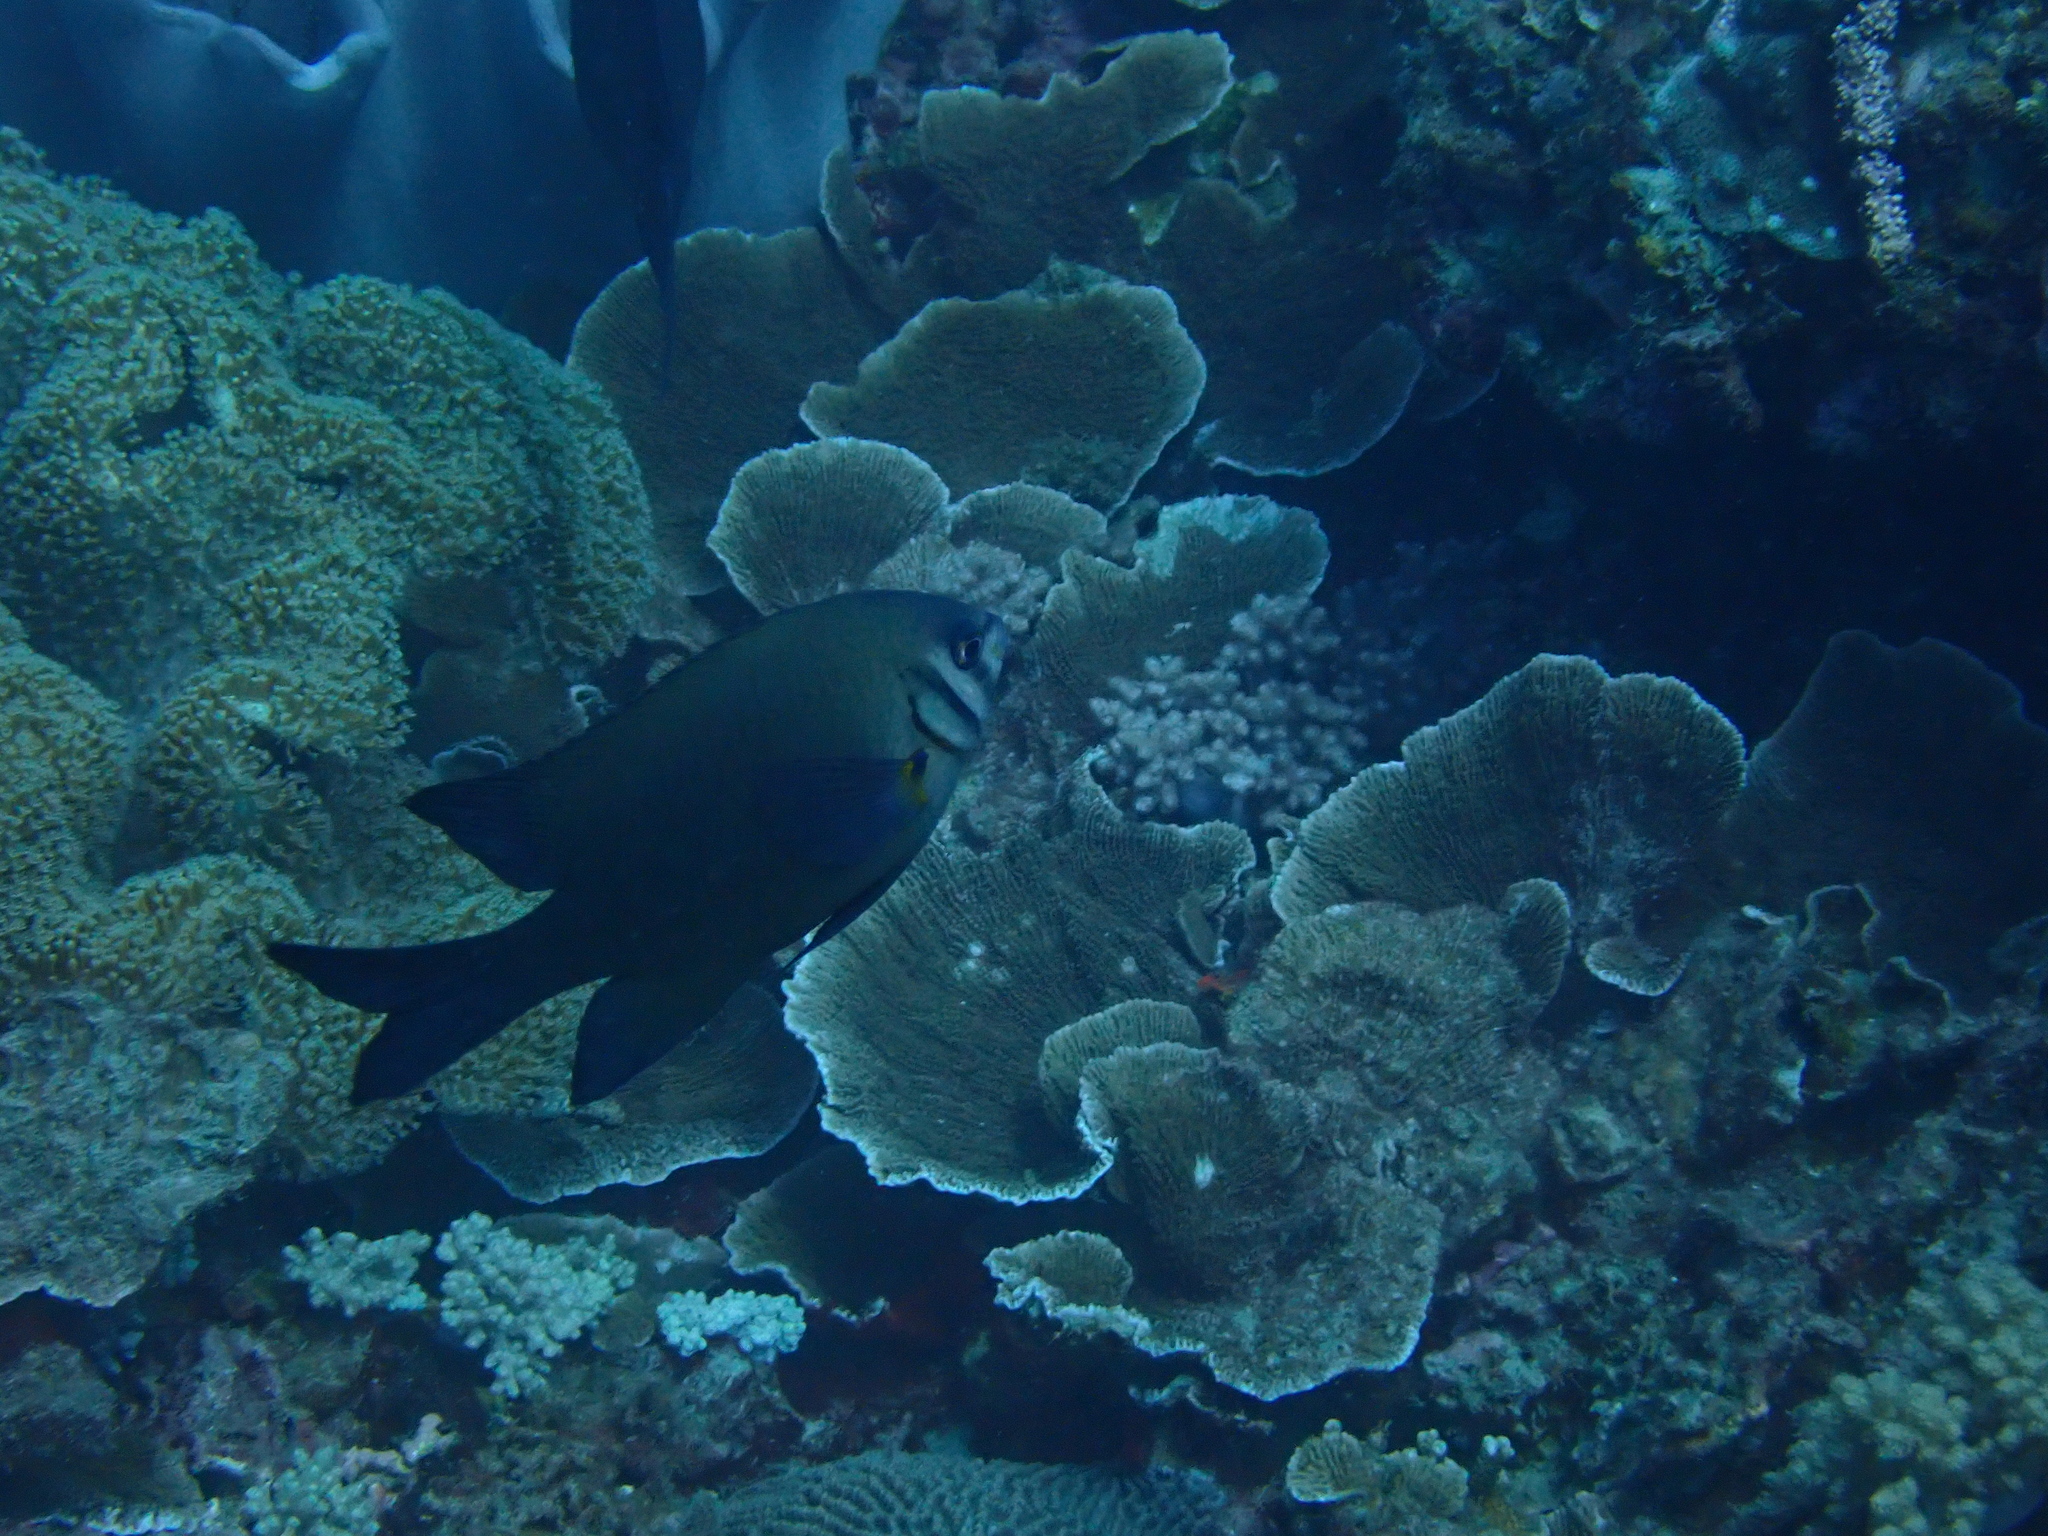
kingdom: Animalia
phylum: Chordata
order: Perciformes
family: Pomacentridae
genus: Neoglyphidodon
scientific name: Neoglyphidodon nigroris
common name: Behn's damsel
